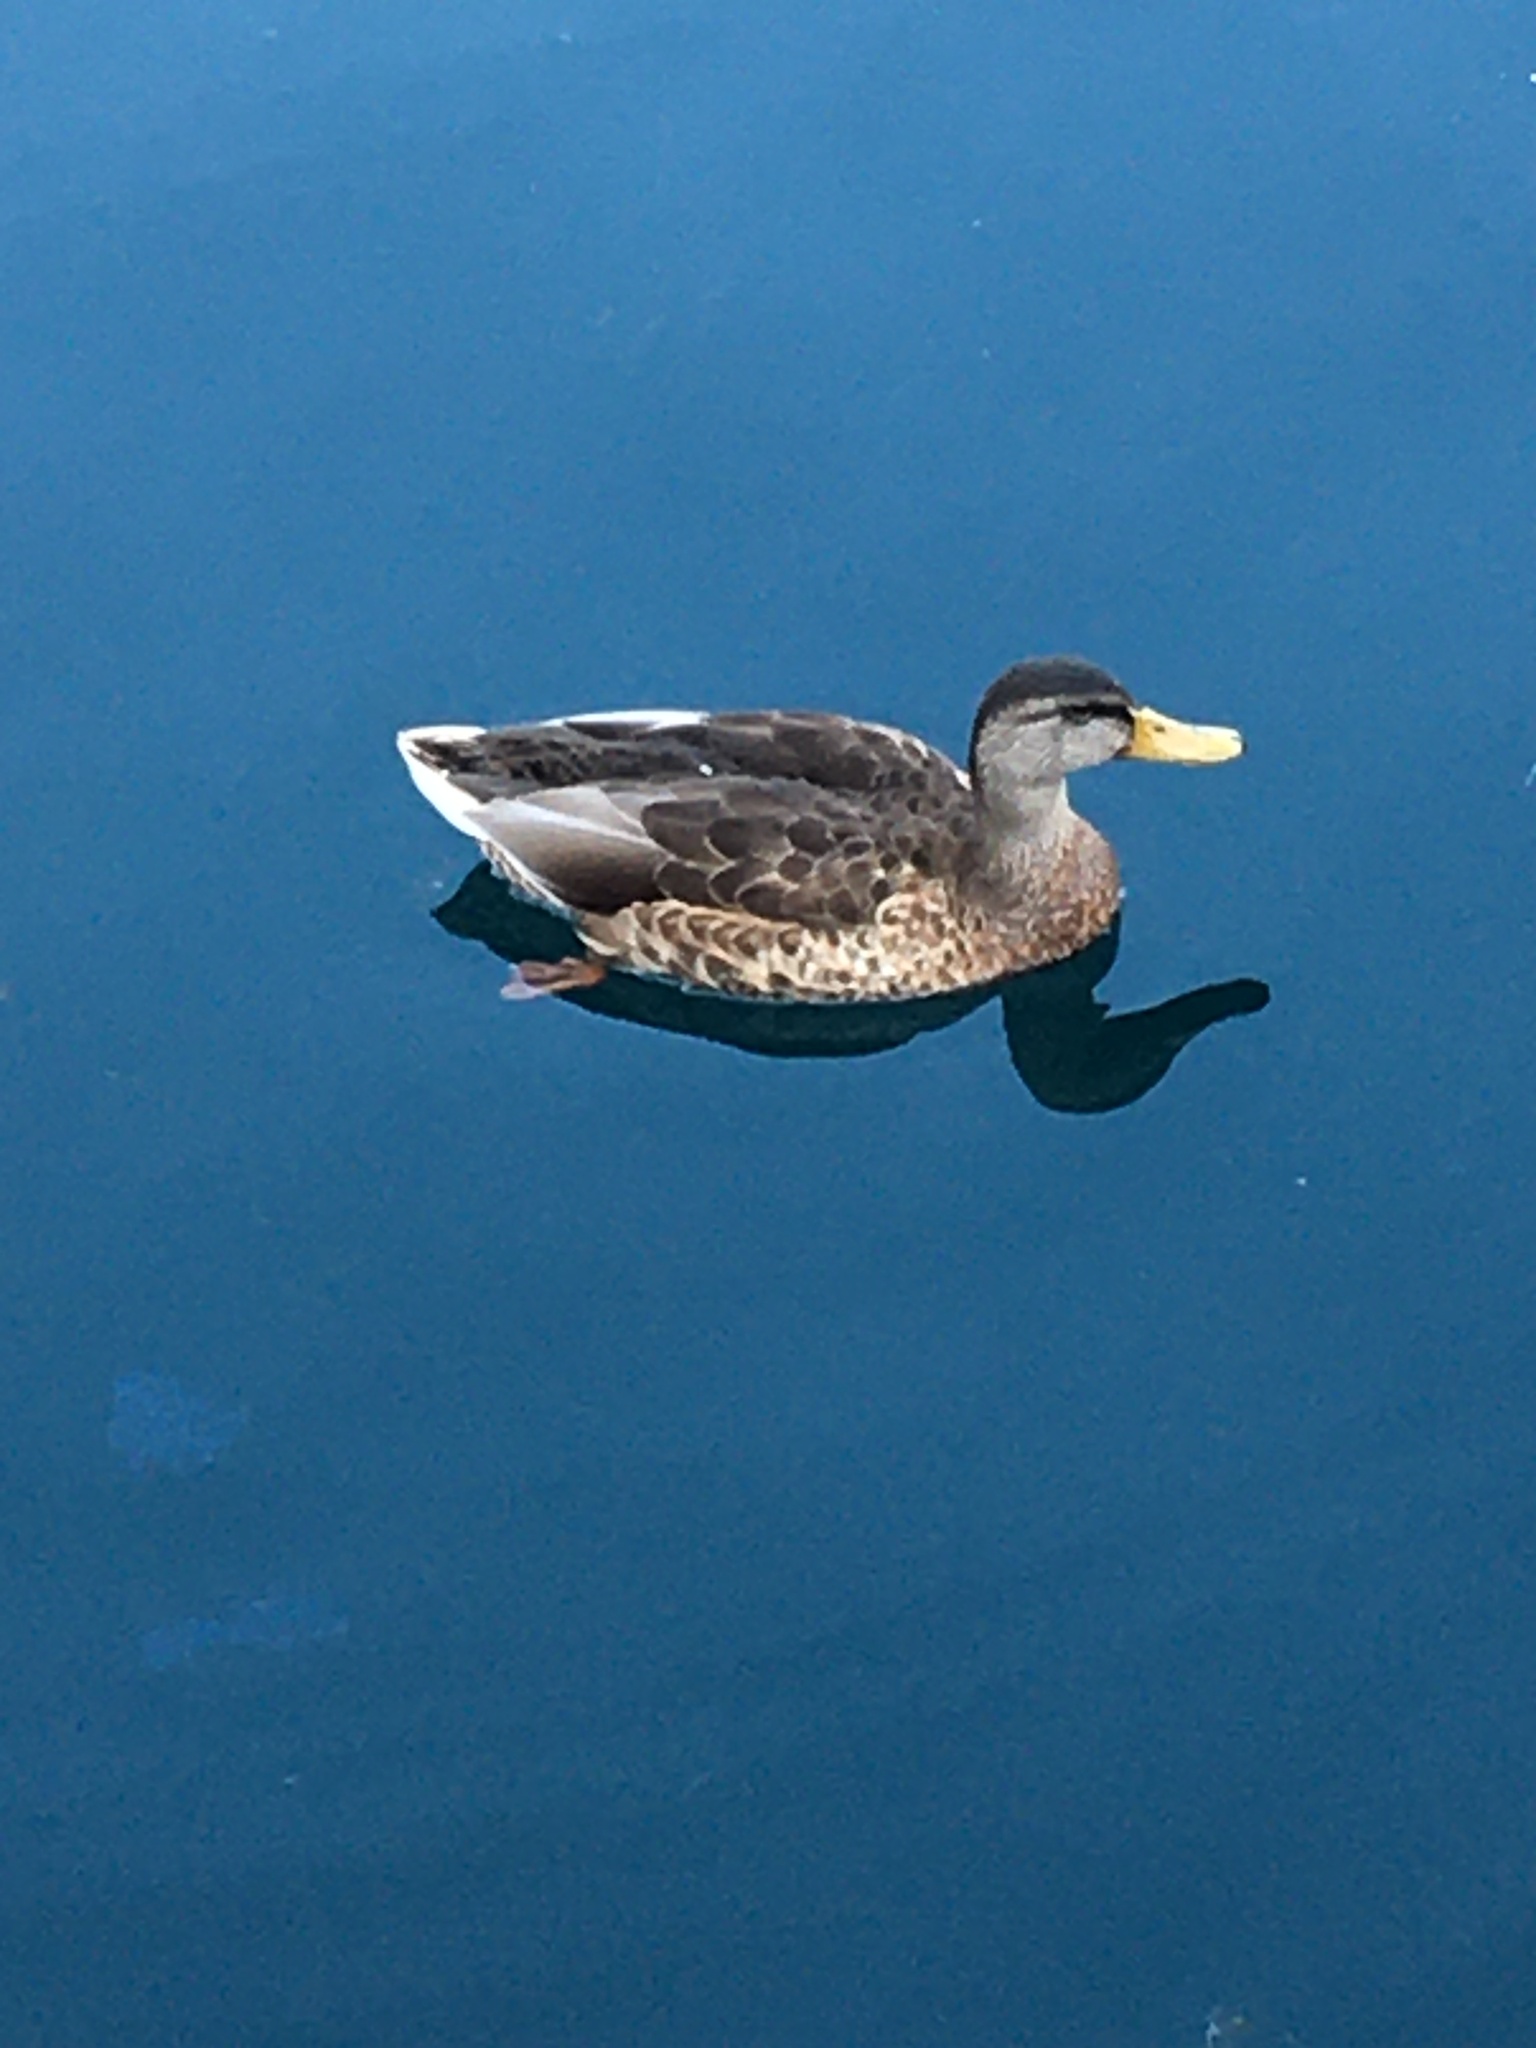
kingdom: Animalia
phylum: Chordata
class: Aves
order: Anseriformes
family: Anatidae
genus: Anas
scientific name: Anas platyrhynchos
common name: Mallard
